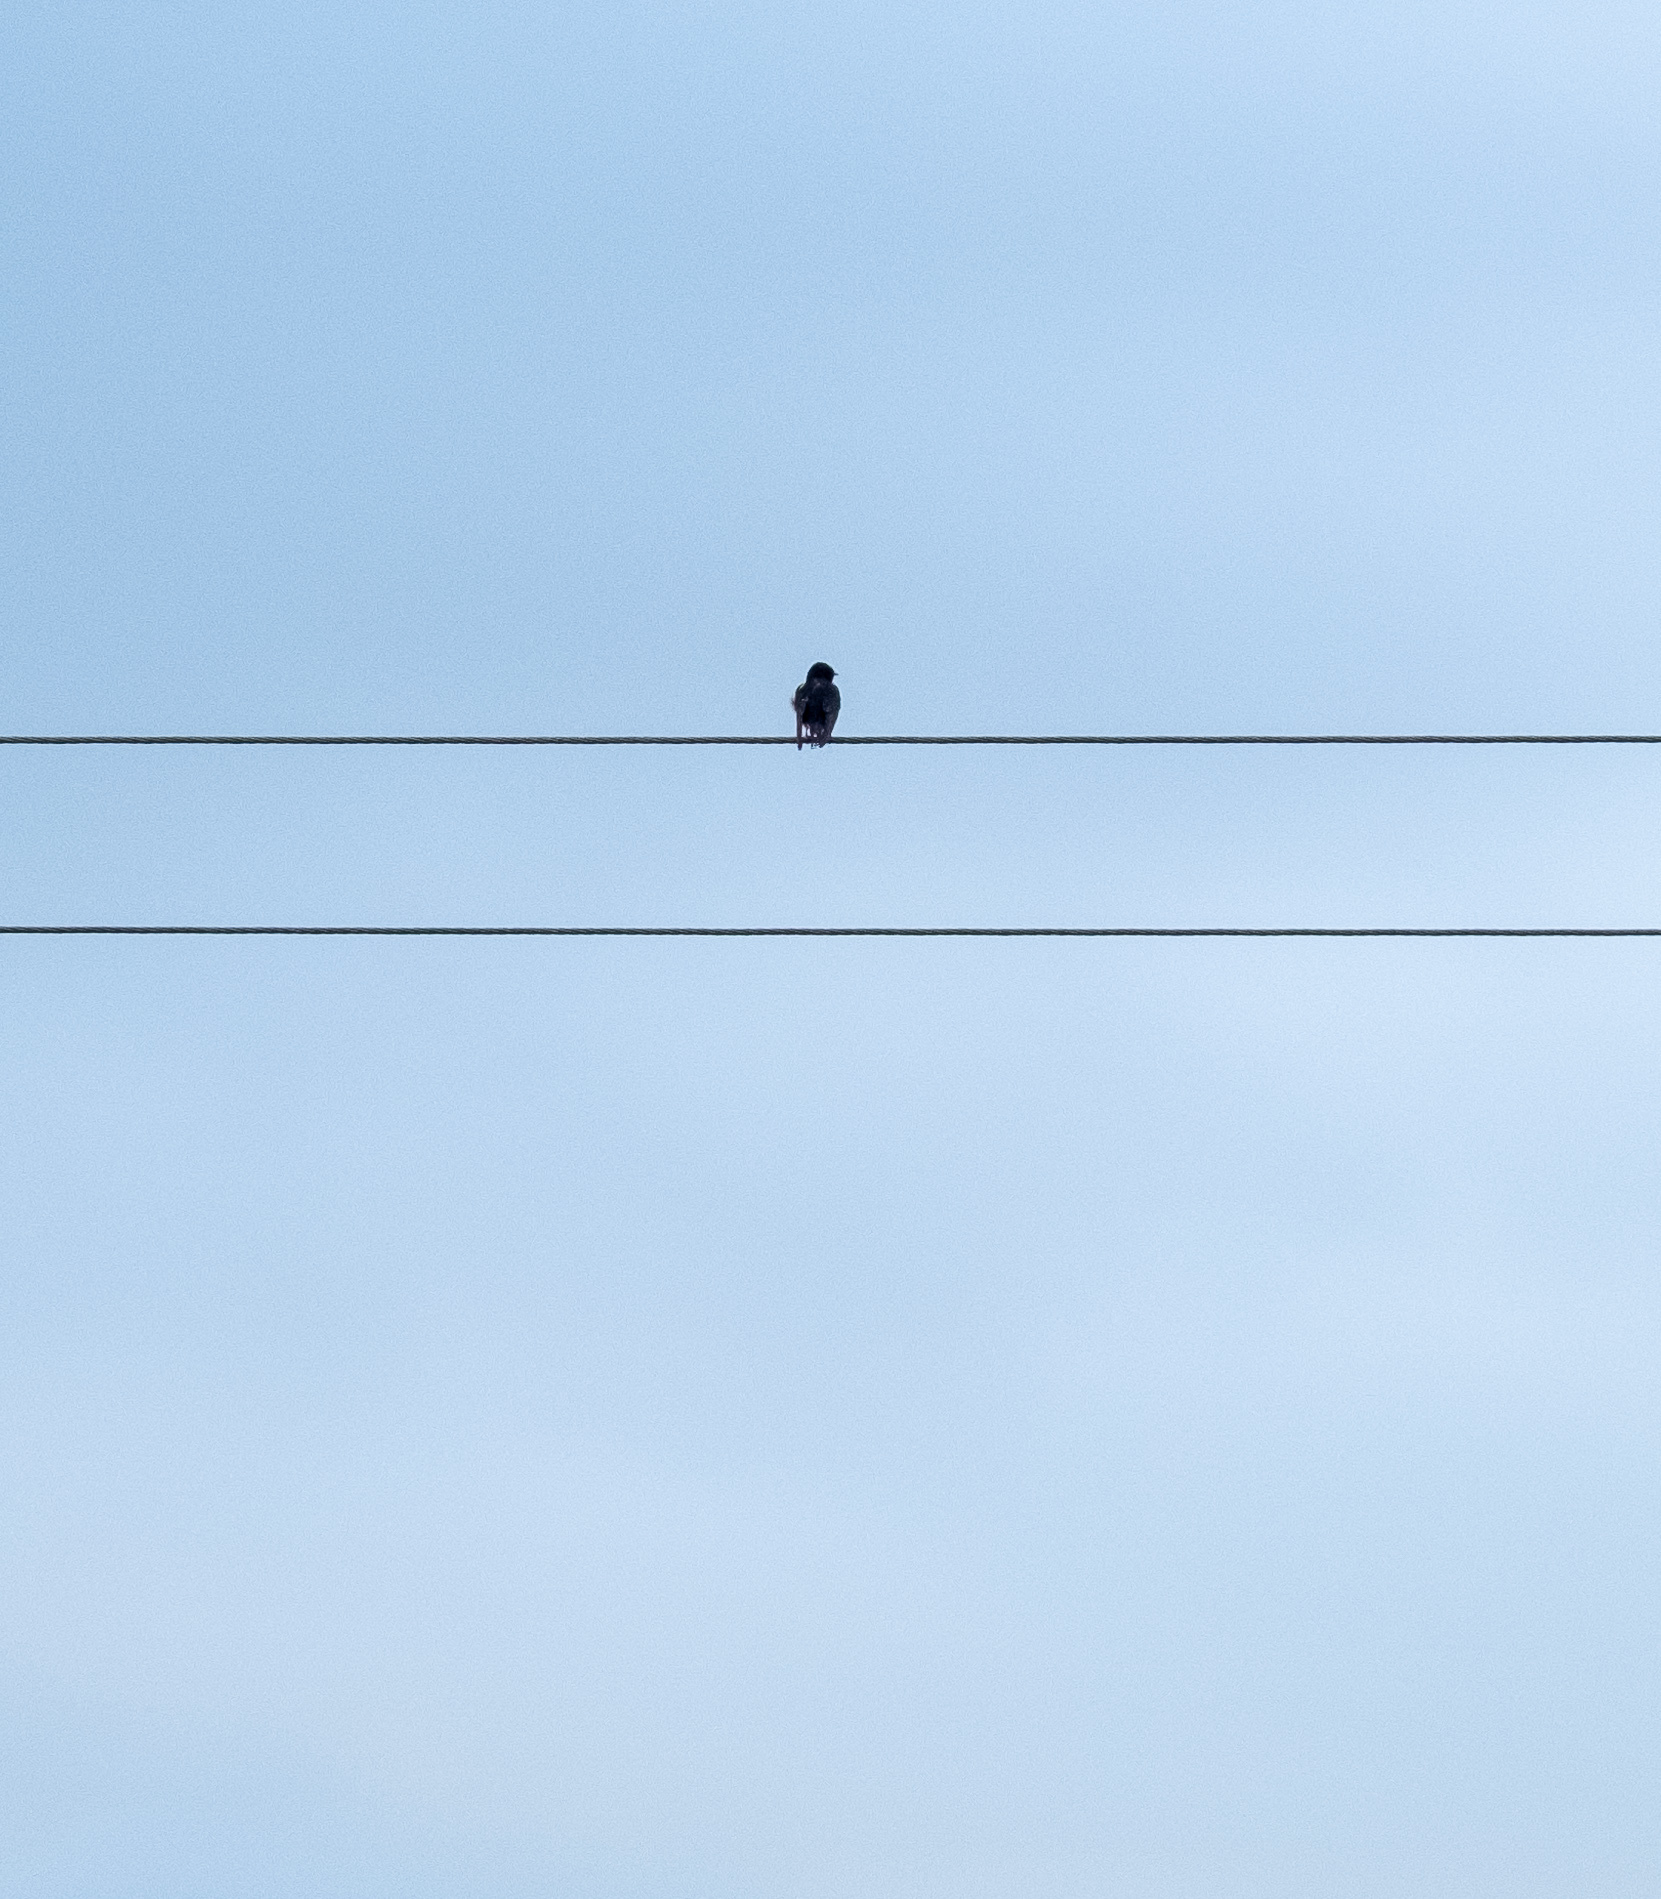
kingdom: Animalia
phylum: Chordata
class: Aves
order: Passeriformes
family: Hirundinidae
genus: Hirundo
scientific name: Hirundo rustica
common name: Barn swallow
